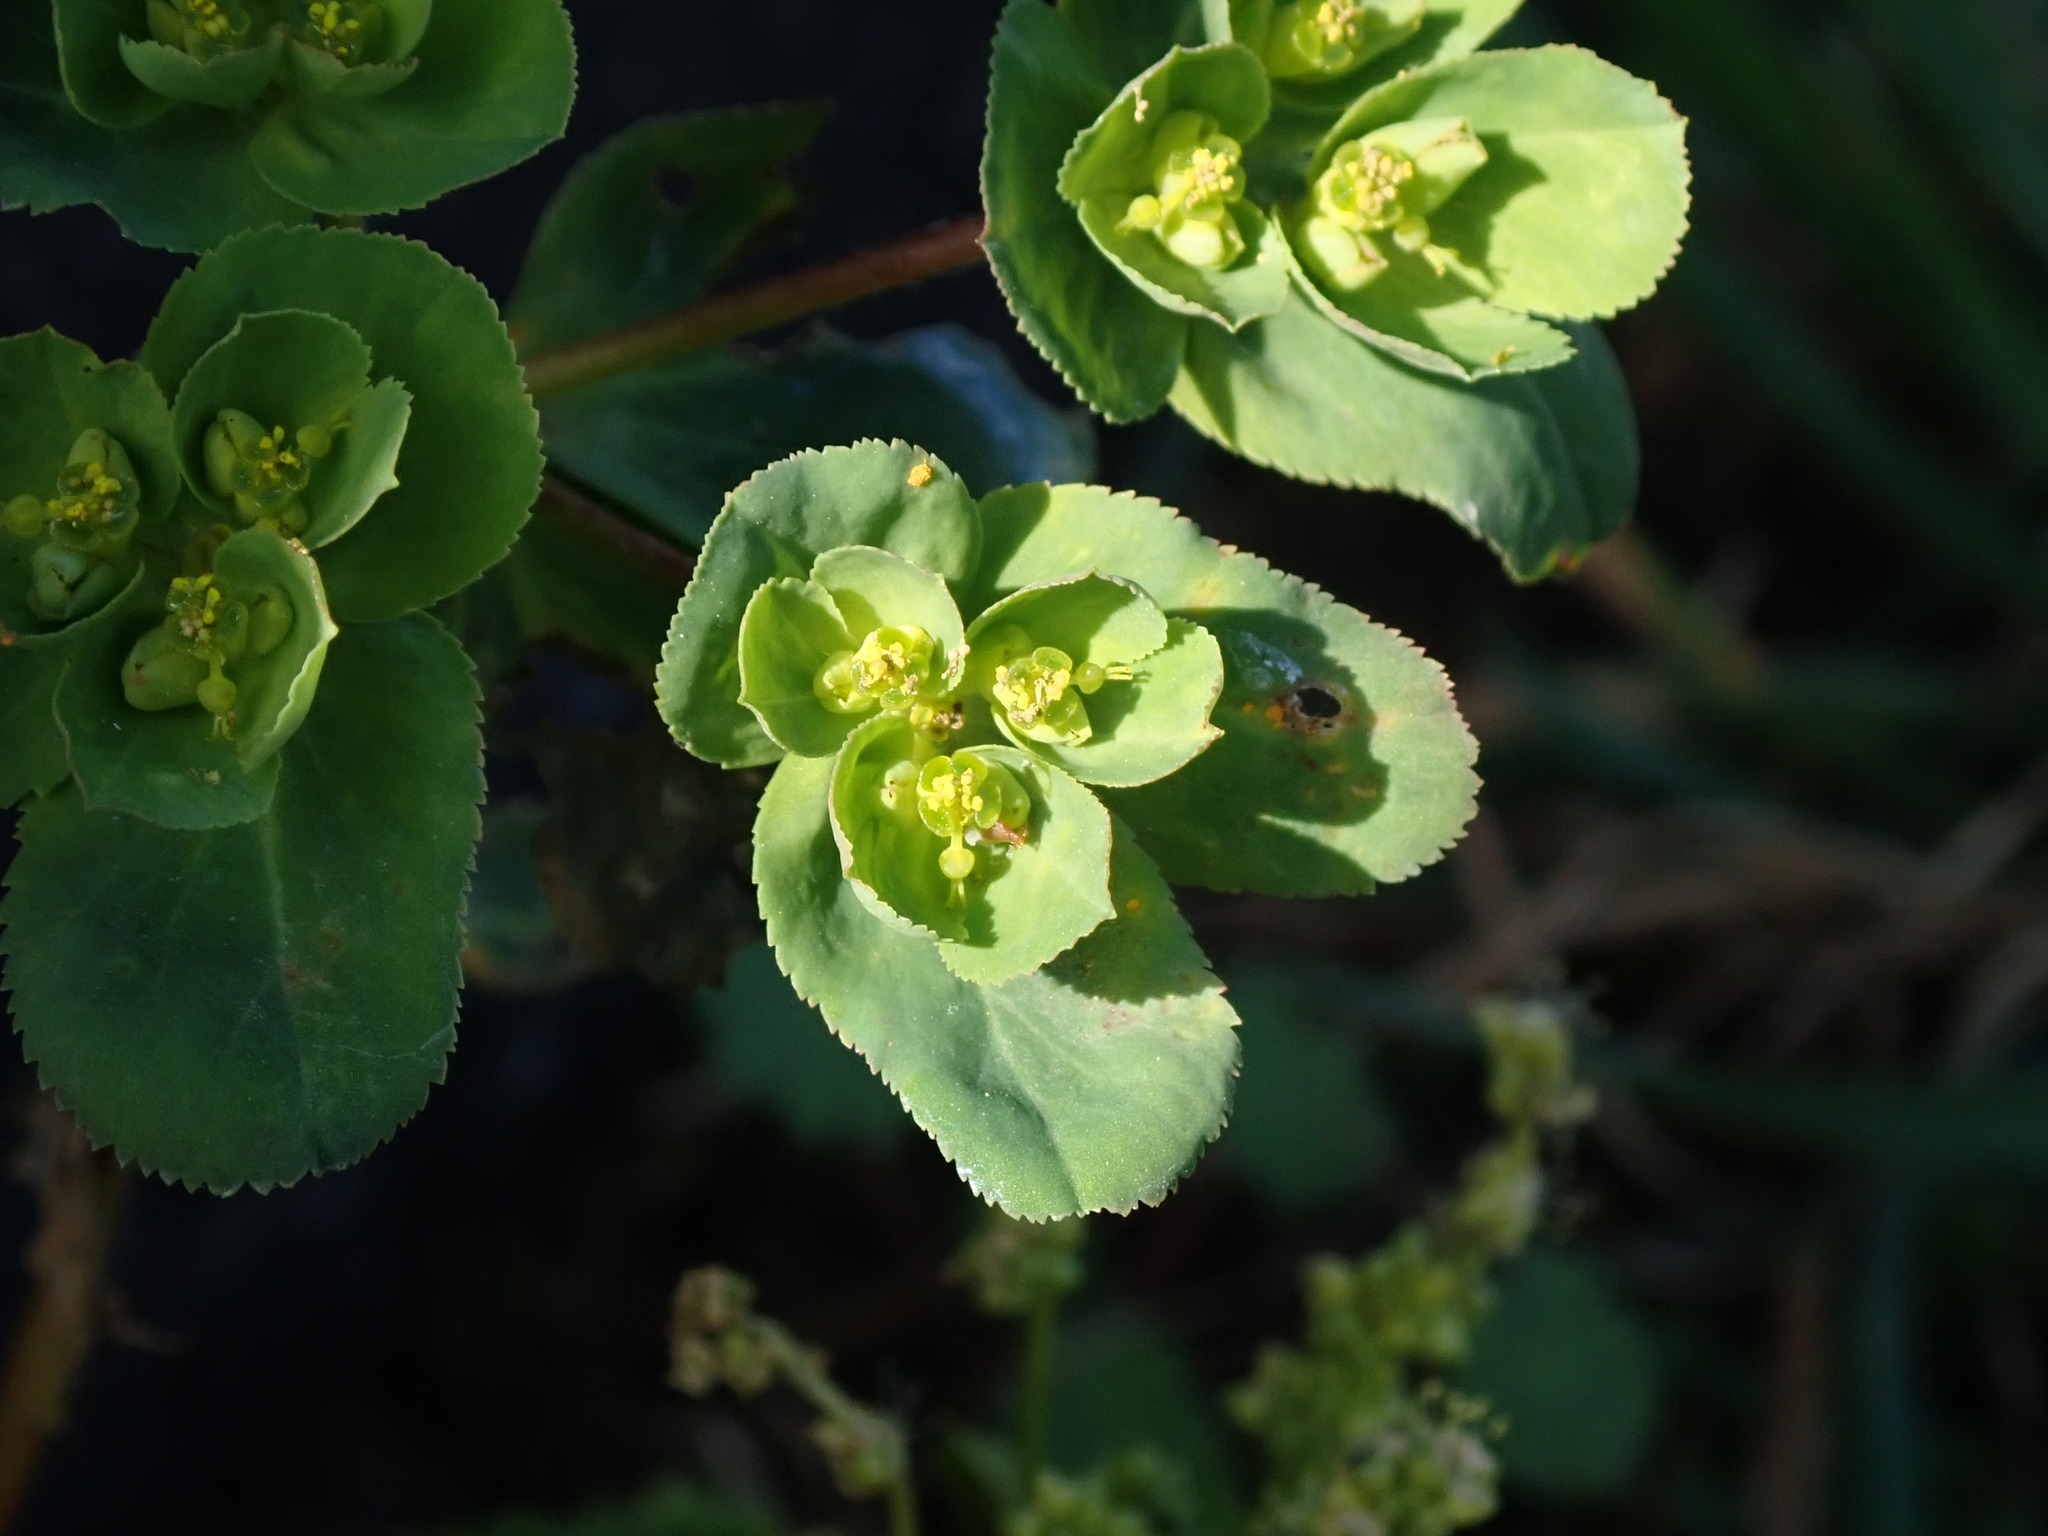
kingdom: Plantae
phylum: Tracheophyta
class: Magnoliopsida
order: Malpighiales
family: Euphorbiaceae
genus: Euphorbia
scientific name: Euphorbia helioscopia
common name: Sun spurge
